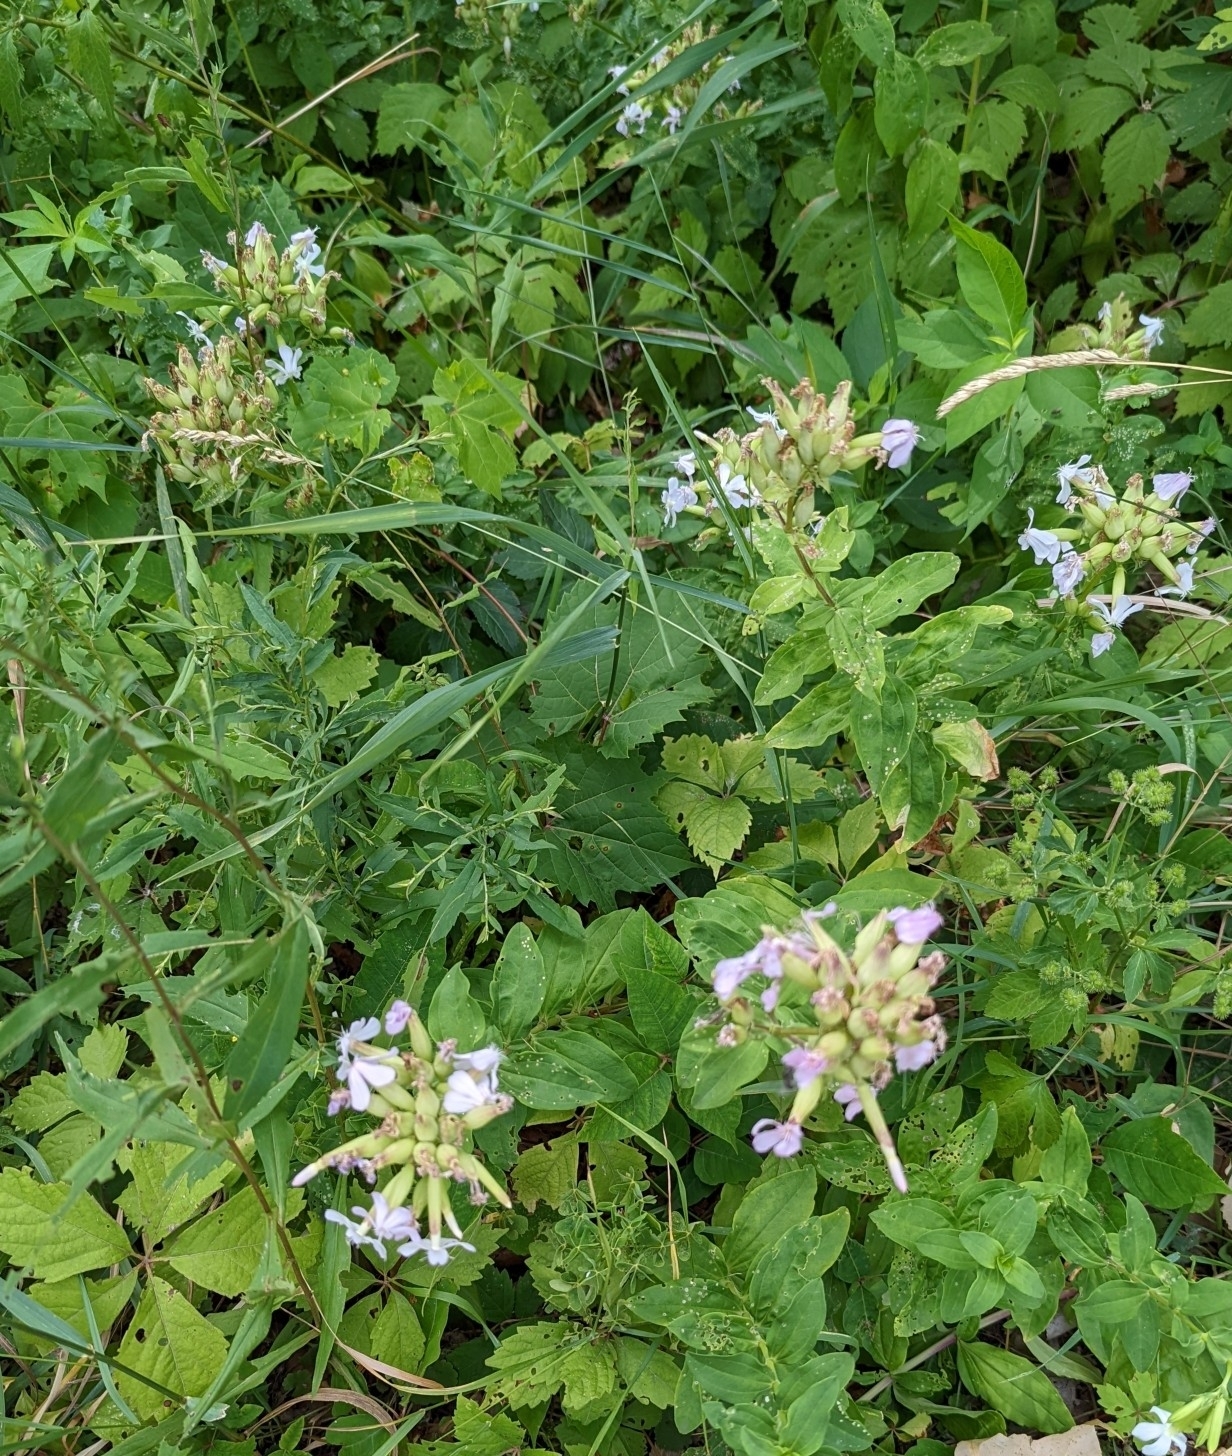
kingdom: Plantae
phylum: Tracheophyta
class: Magnoliopsida
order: Caryophyllales
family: Caryophyllaceae
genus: Saponaria
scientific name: Saponaria officinalis
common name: Soapwort
